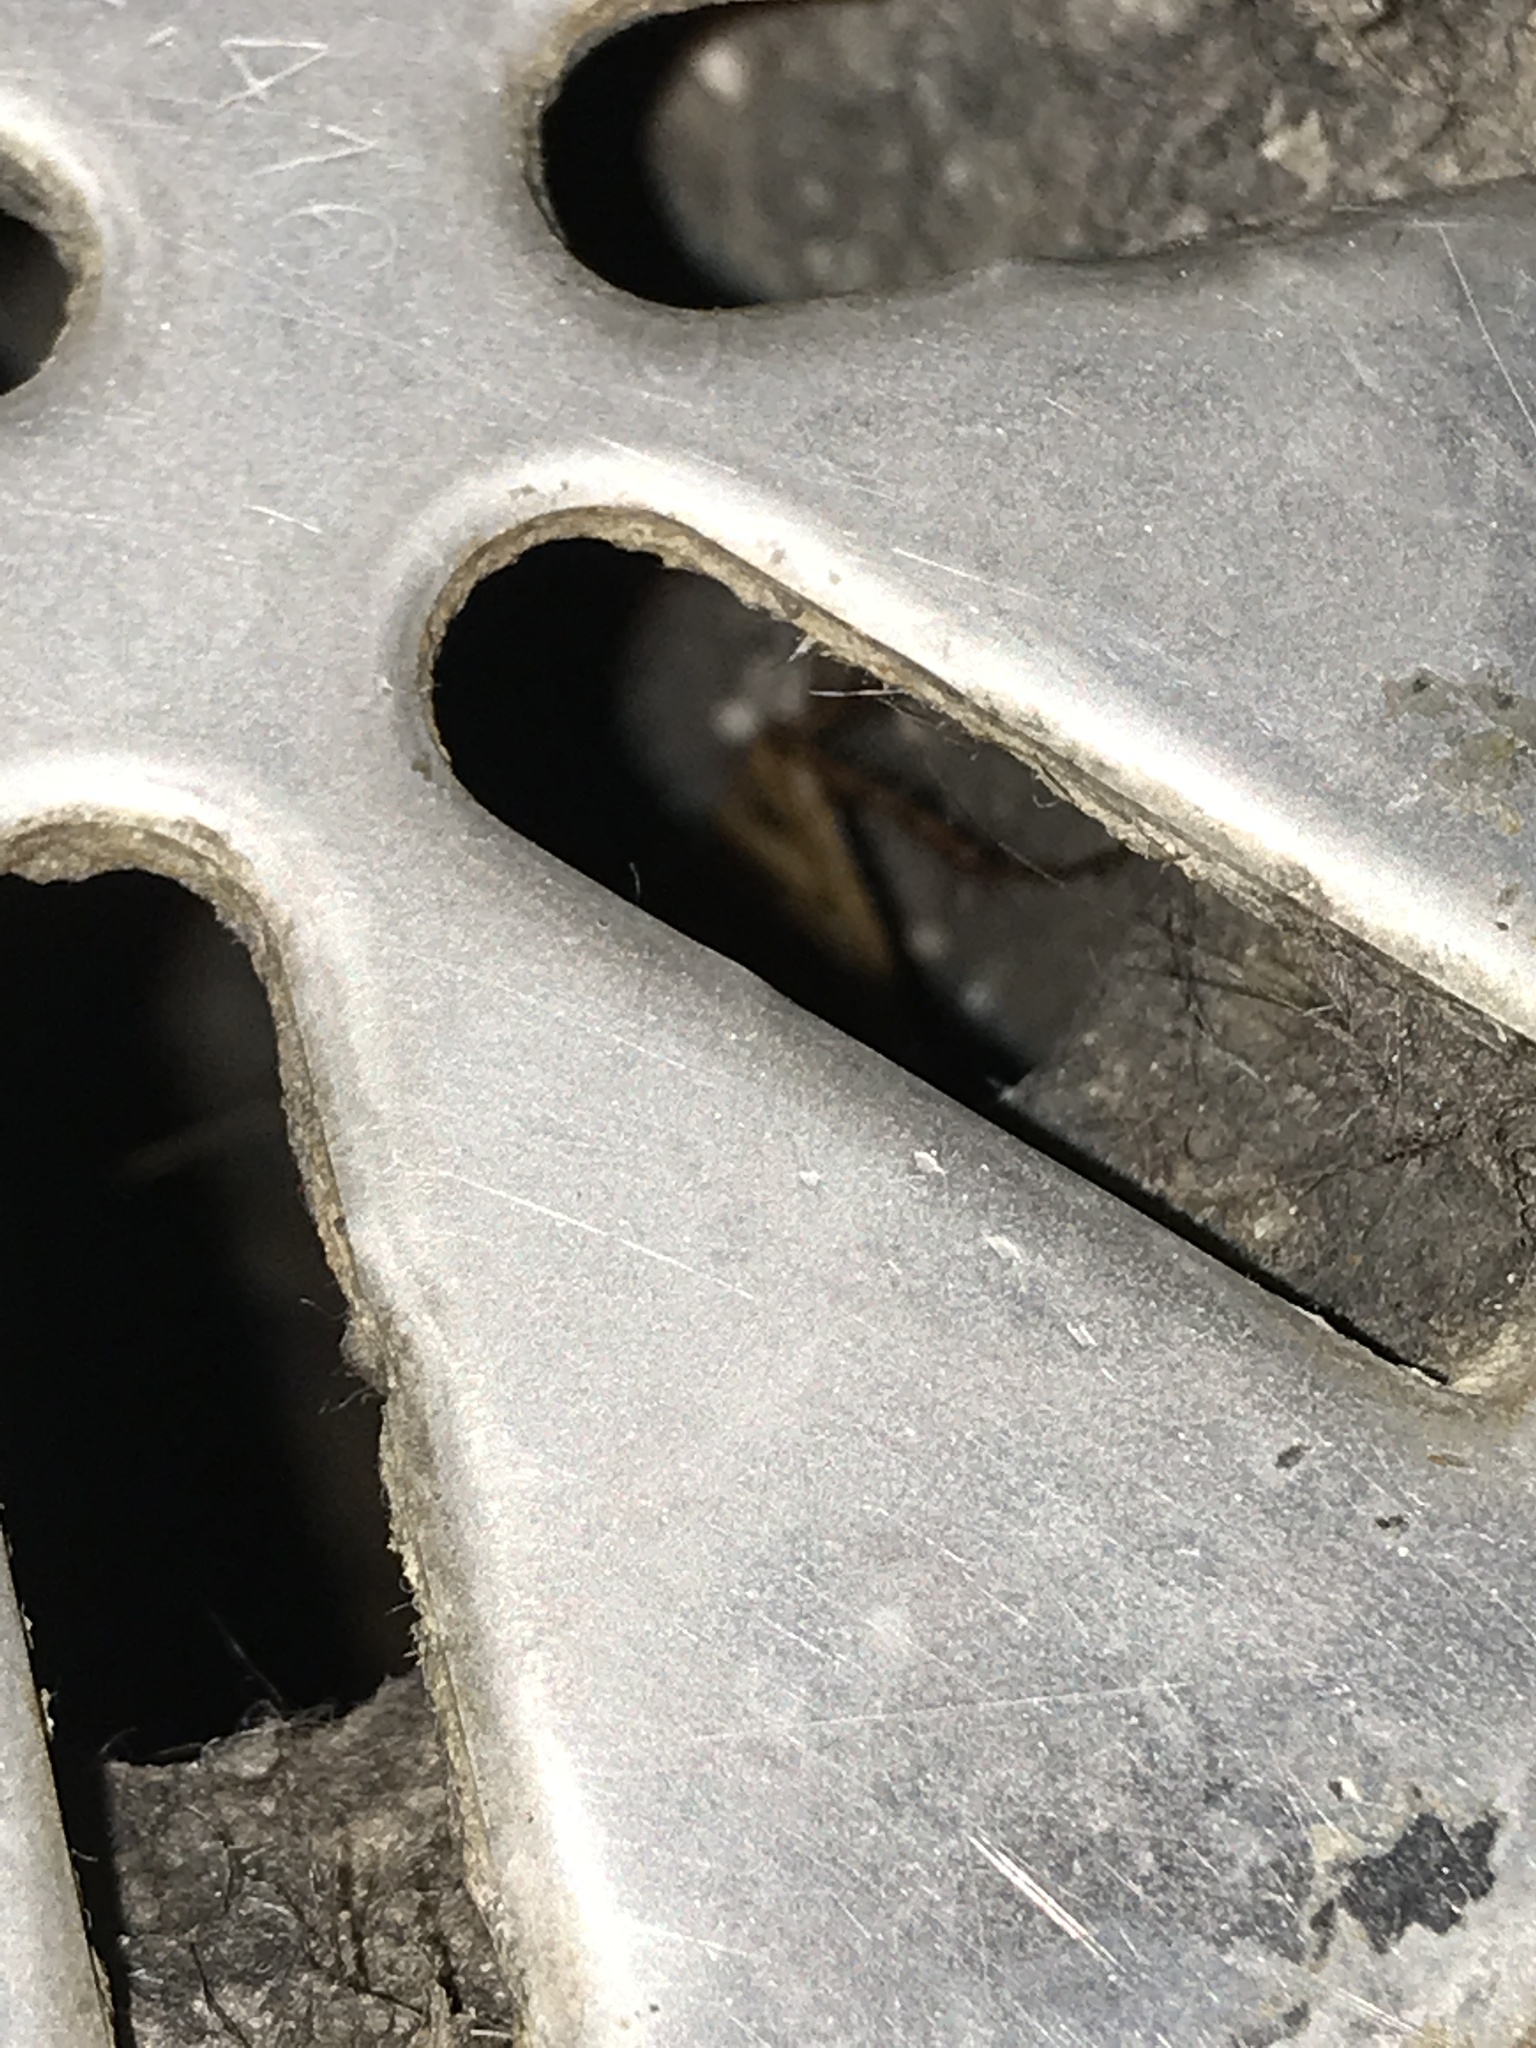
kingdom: Animalia
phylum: Arthropoda
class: Insecta
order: Blattodea
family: Blattidae
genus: Periplaneta
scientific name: Periplaneta americana
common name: American cockroach
